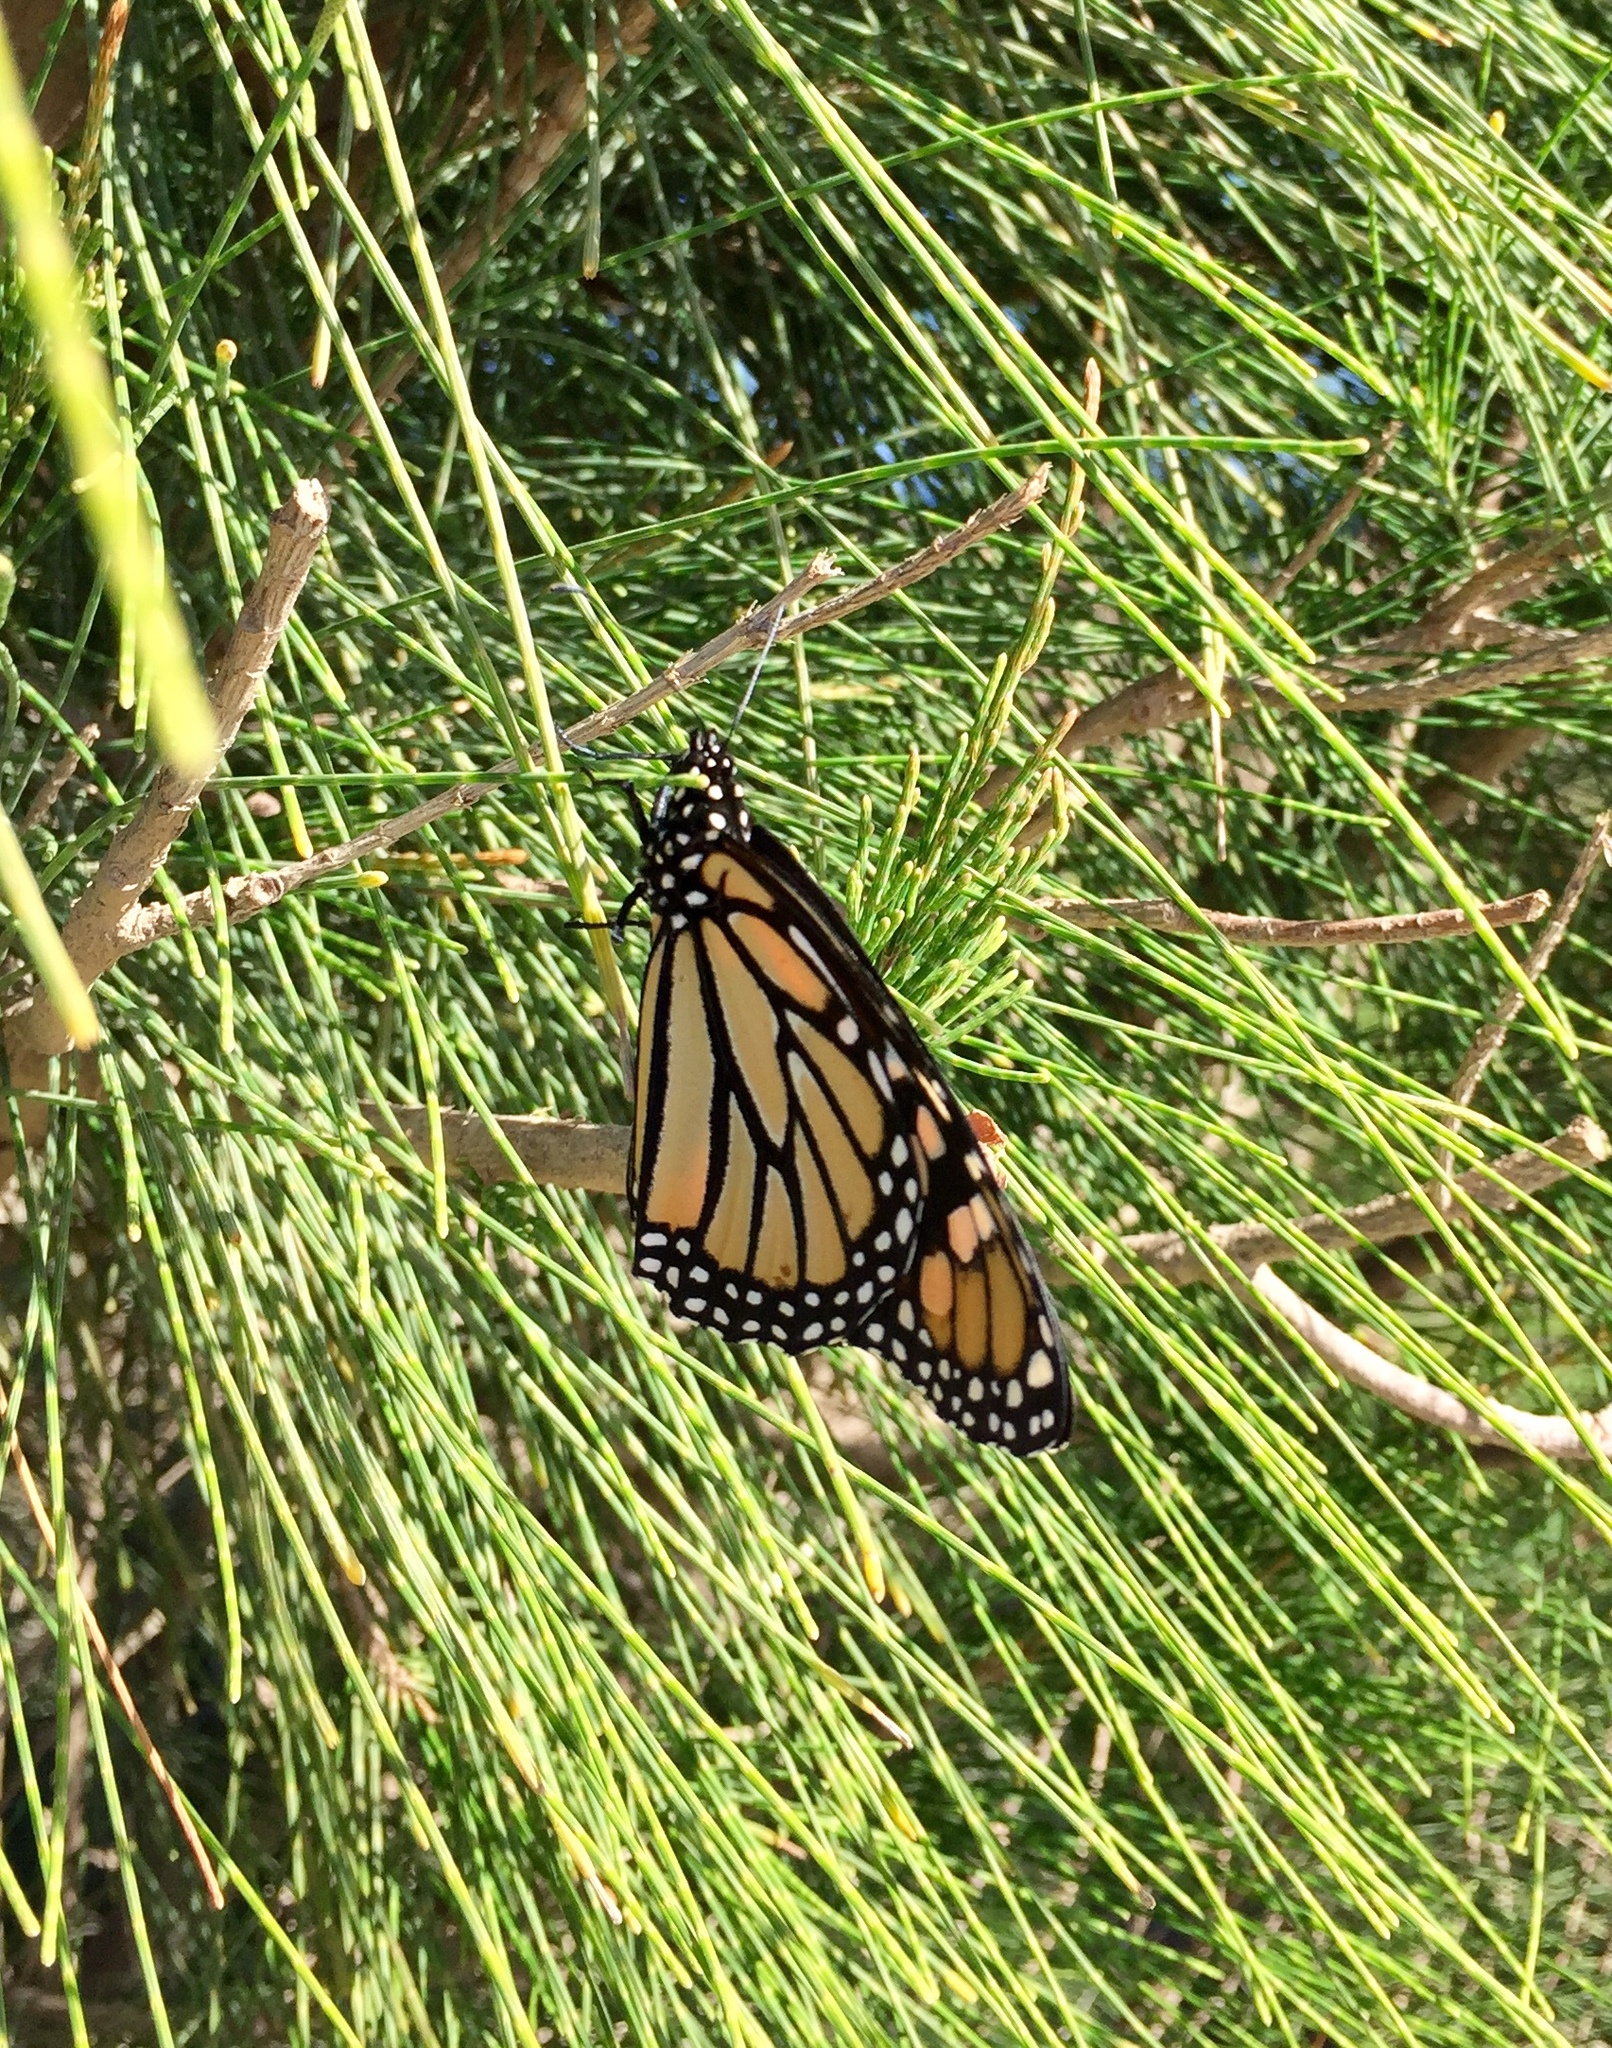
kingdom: Animalia
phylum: Arthropoda
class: Insecta
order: Lepidoptera
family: Nymphalidae
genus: Danaus
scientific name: Danaus plexippus
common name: Monarch
